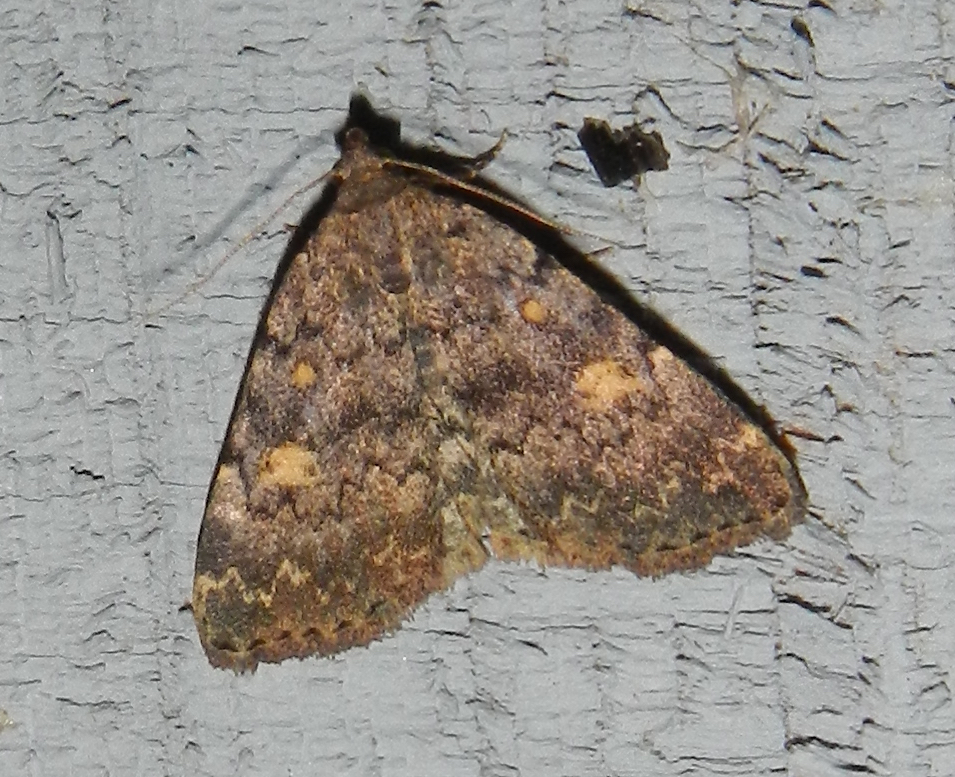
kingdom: Animalia
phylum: Arthropoda
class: Insecta
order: Lepidoptera
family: Erebidae
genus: Idia
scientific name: Idia aemula
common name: Common idia moth
